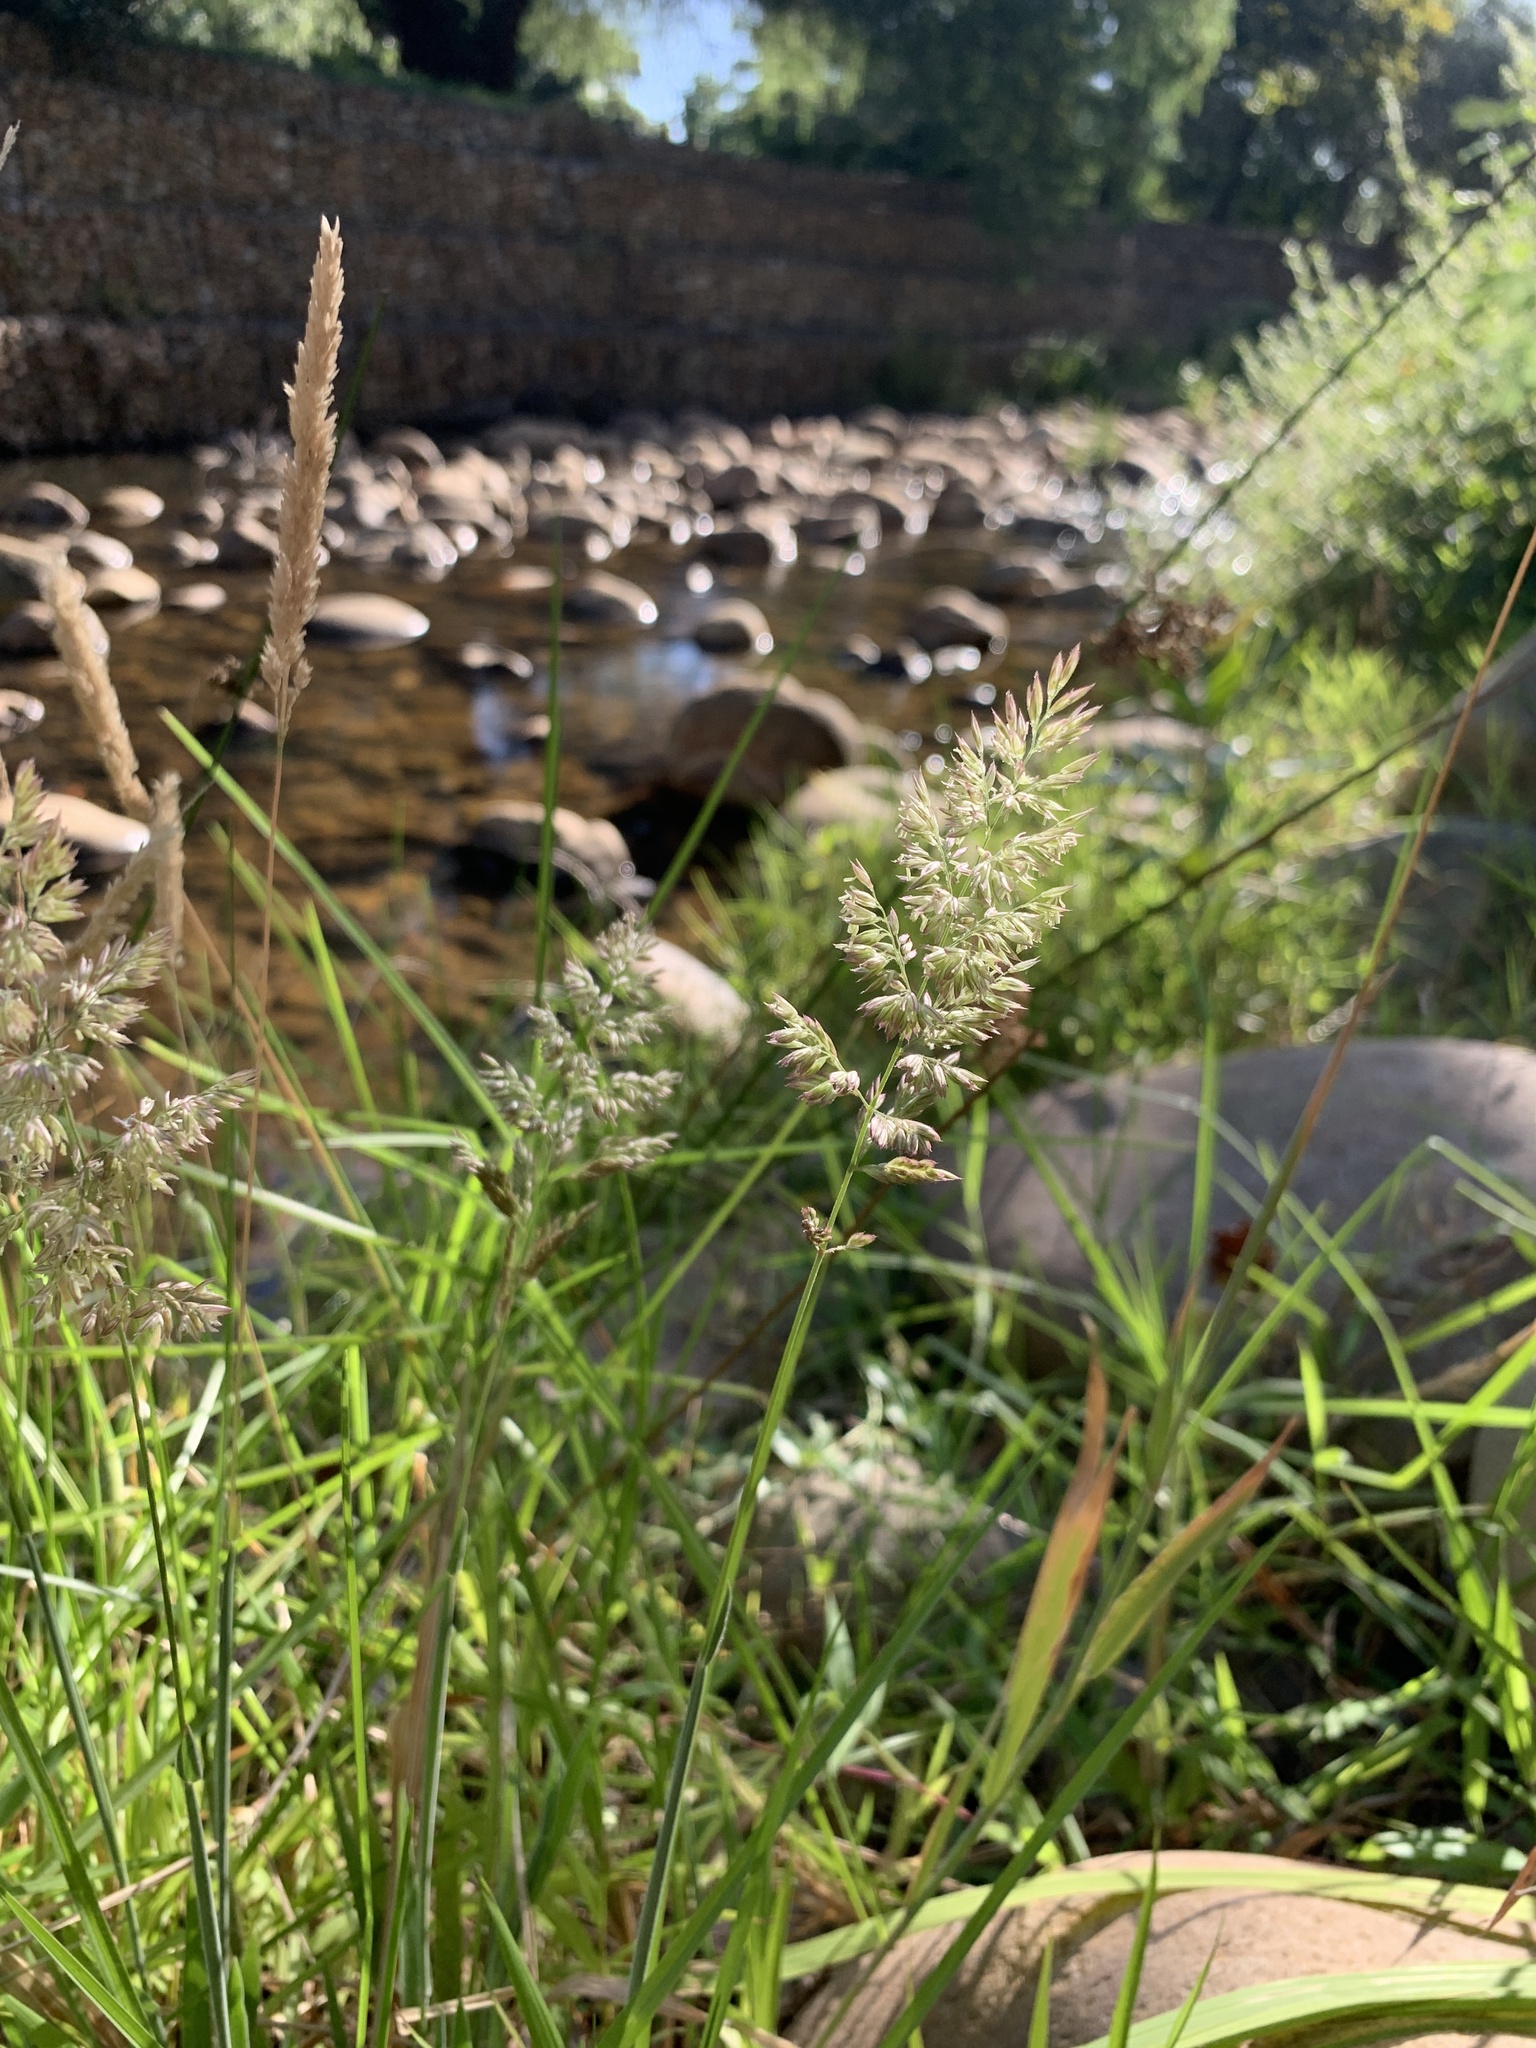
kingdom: Plantae
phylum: Tracheophyta
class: Liliopsida
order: Poales
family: Poaceae
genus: Holcus
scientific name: Holcus lanatus
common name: Yorkshire-fog
